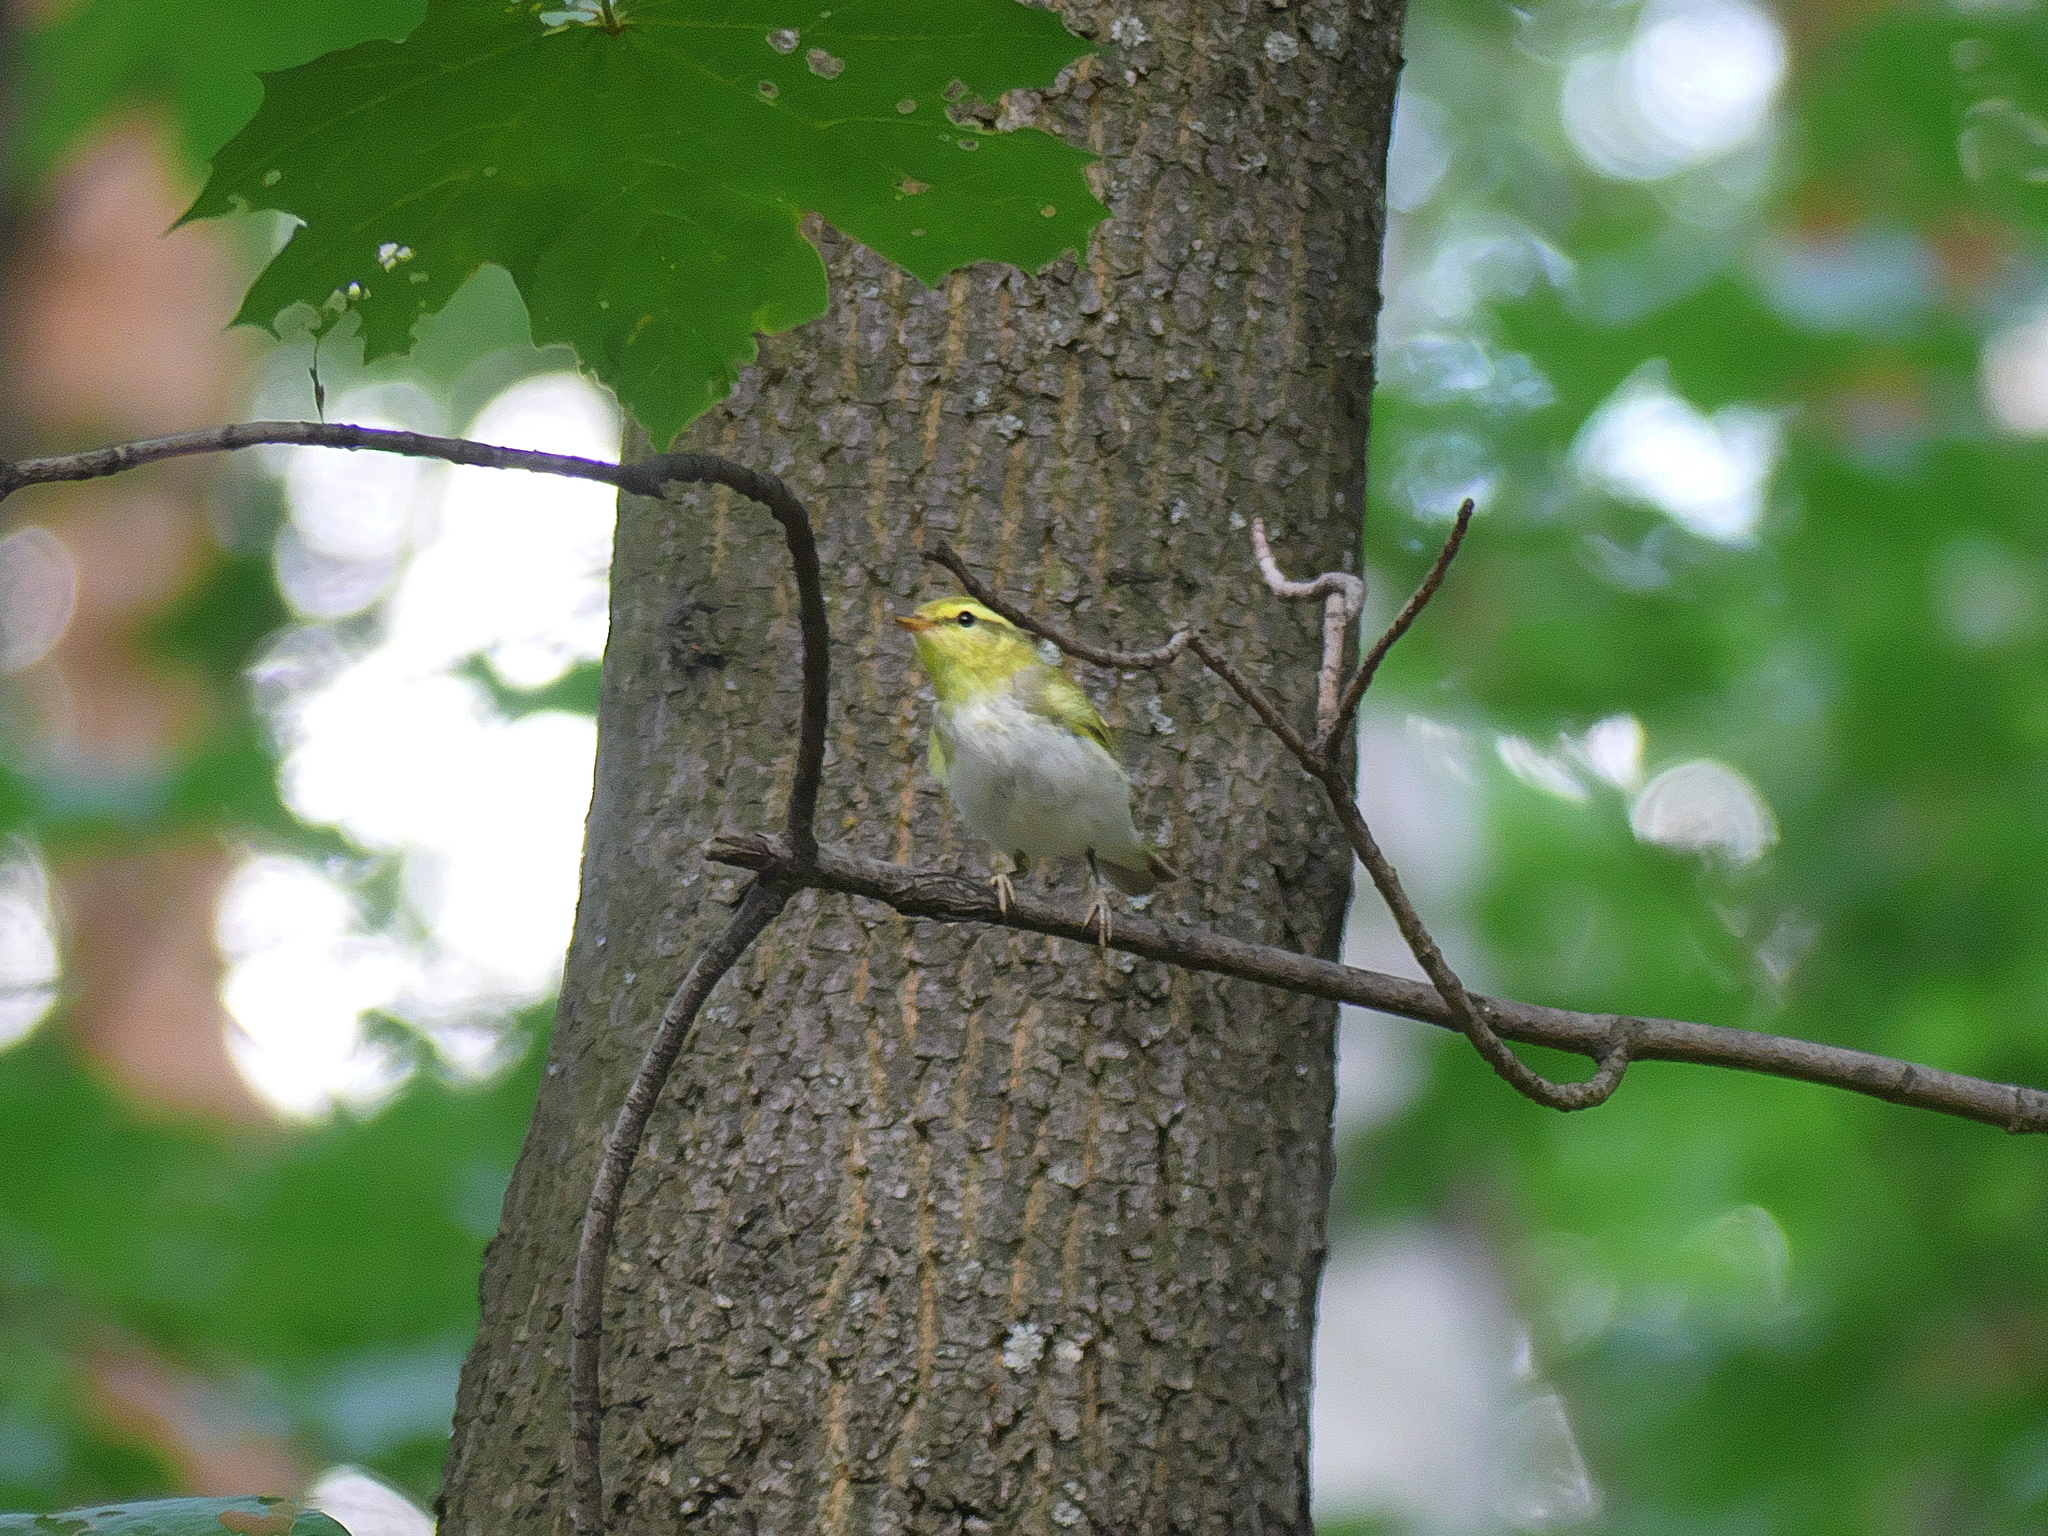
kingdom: Animalia
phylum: Chordata
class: Aves
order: Passeriformes
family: Phylloscopidae
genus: Phylloscopus
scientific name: Phylloscopus sibillatrix
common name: Wood warbler
